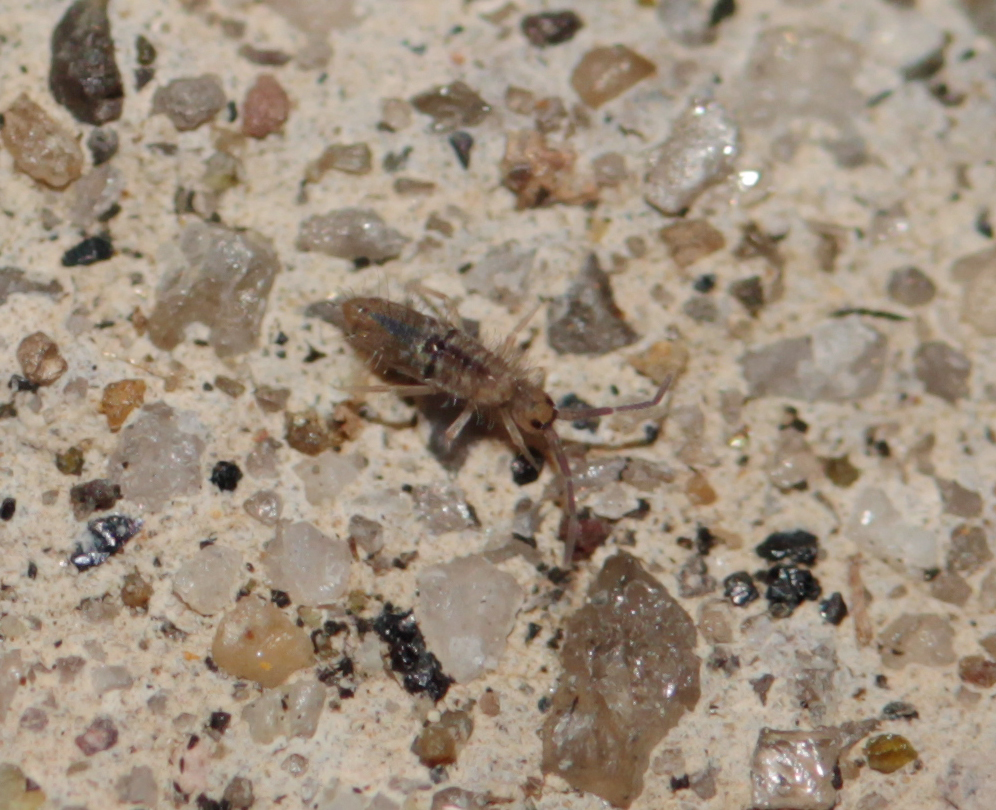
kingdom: Animalia
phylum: Arthropoda
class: Collembola
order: Entomobryomorpha
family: Entomobryidae
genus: Entomobrya
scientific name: Entomobrya unostrigata
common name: Springtail
